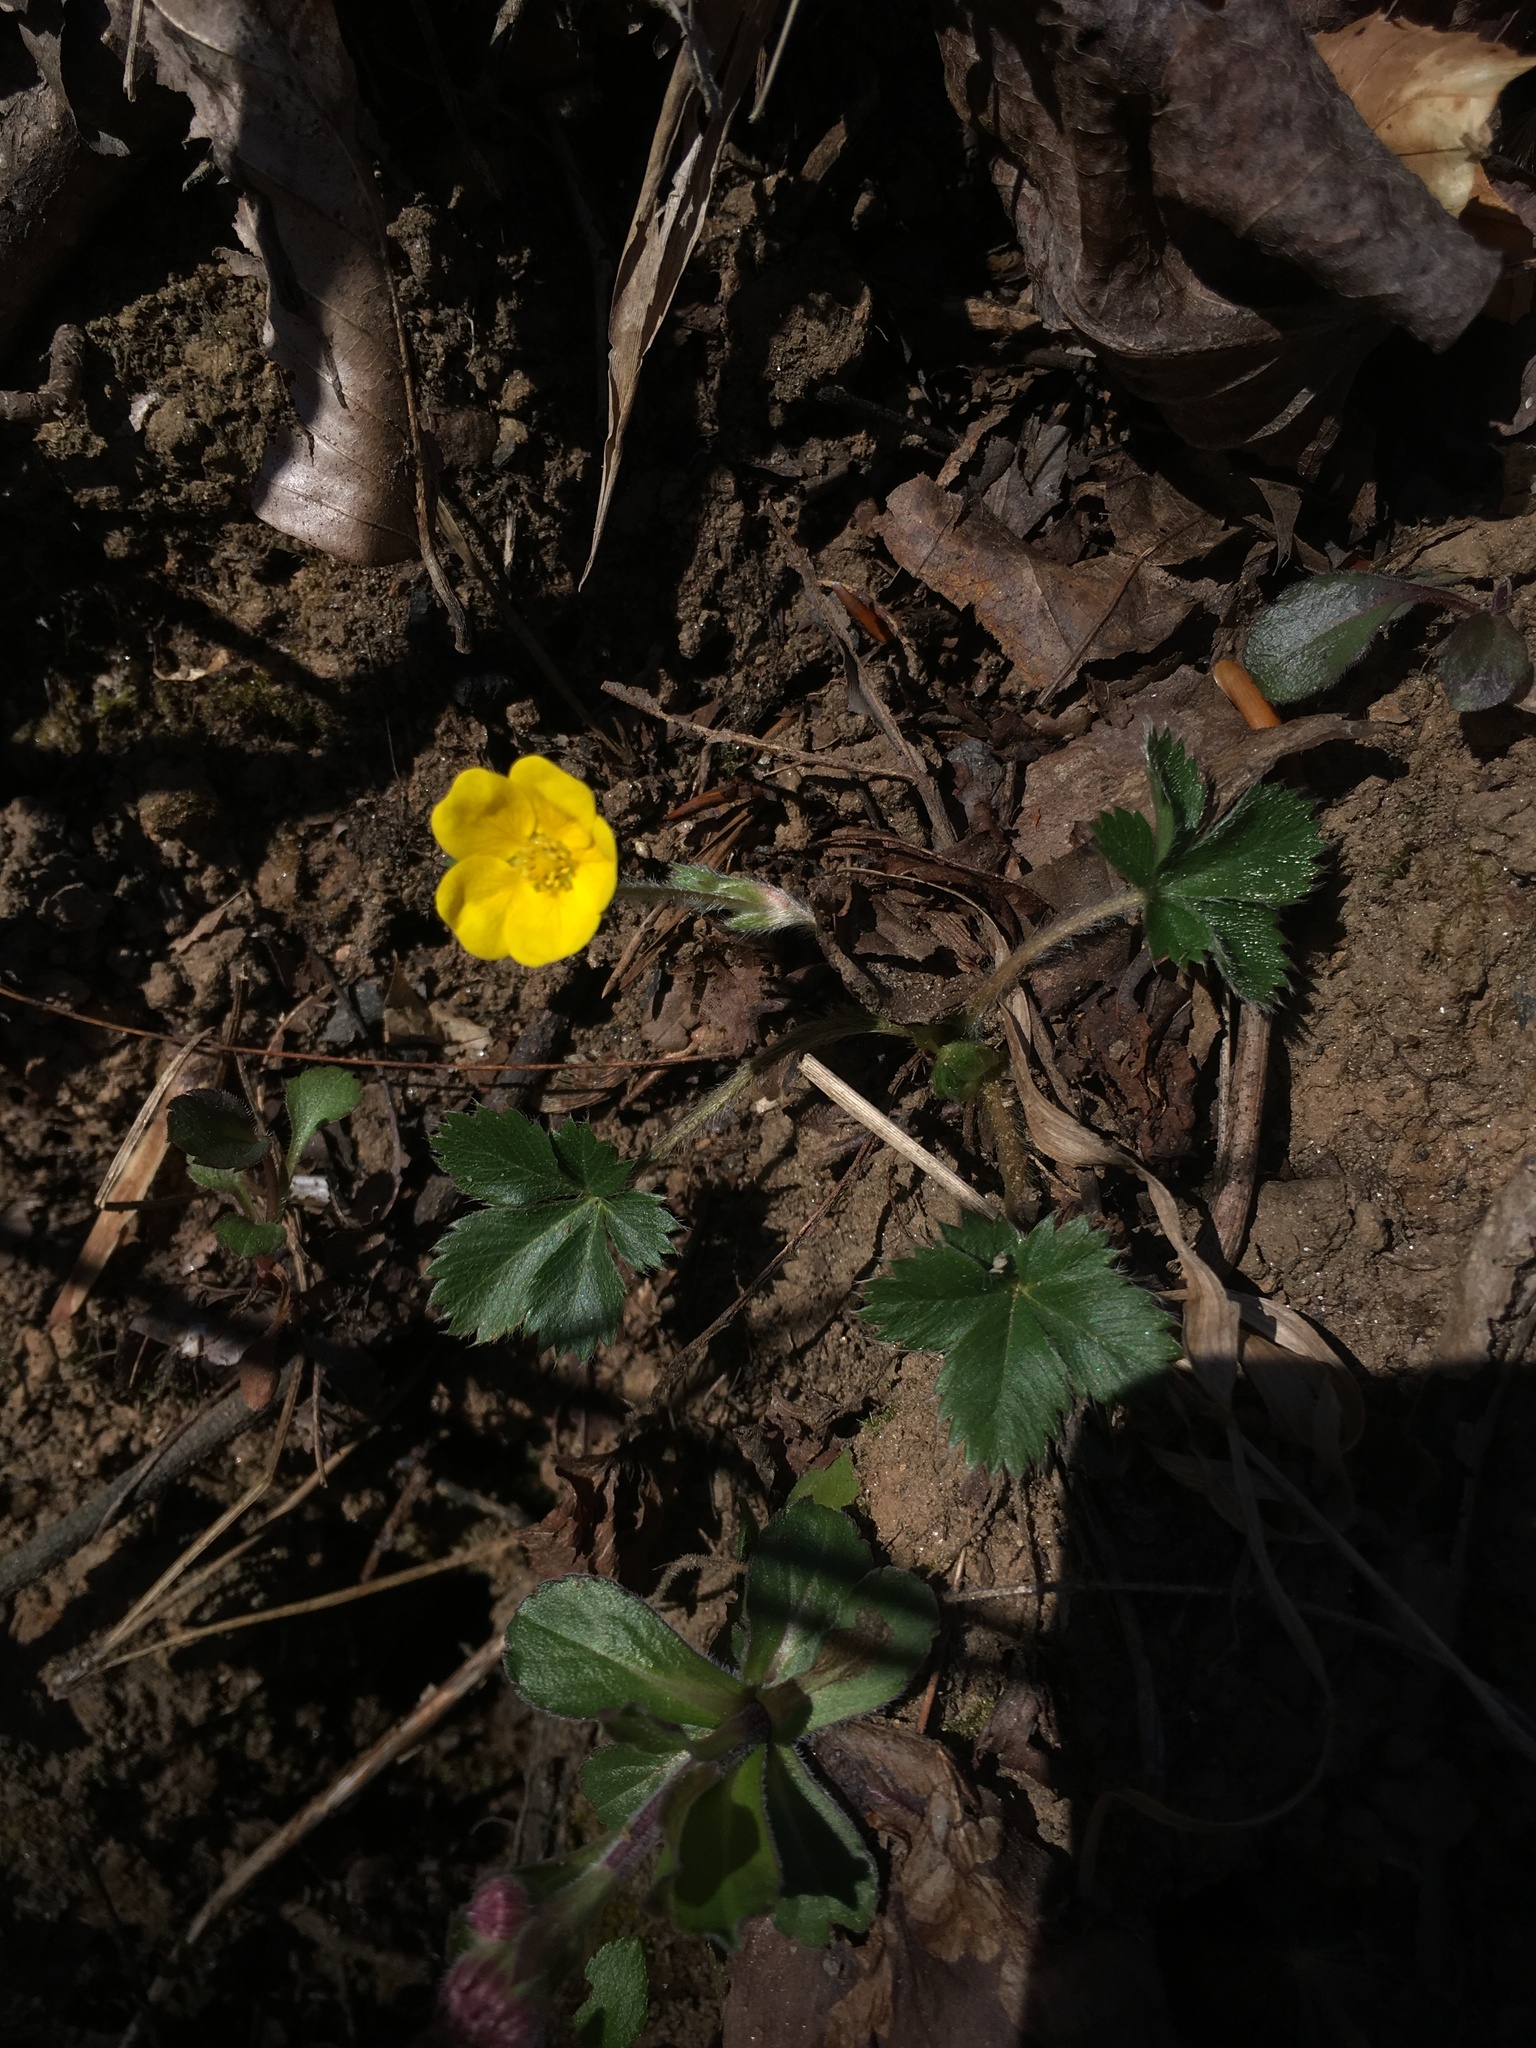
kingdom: Plantae
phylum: Tracheophyta
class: Magnoliopsida
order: Rosales
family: Rosaceae
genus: Potentilla
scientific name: Potentilla canadensis
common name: Canada cinquefoil
